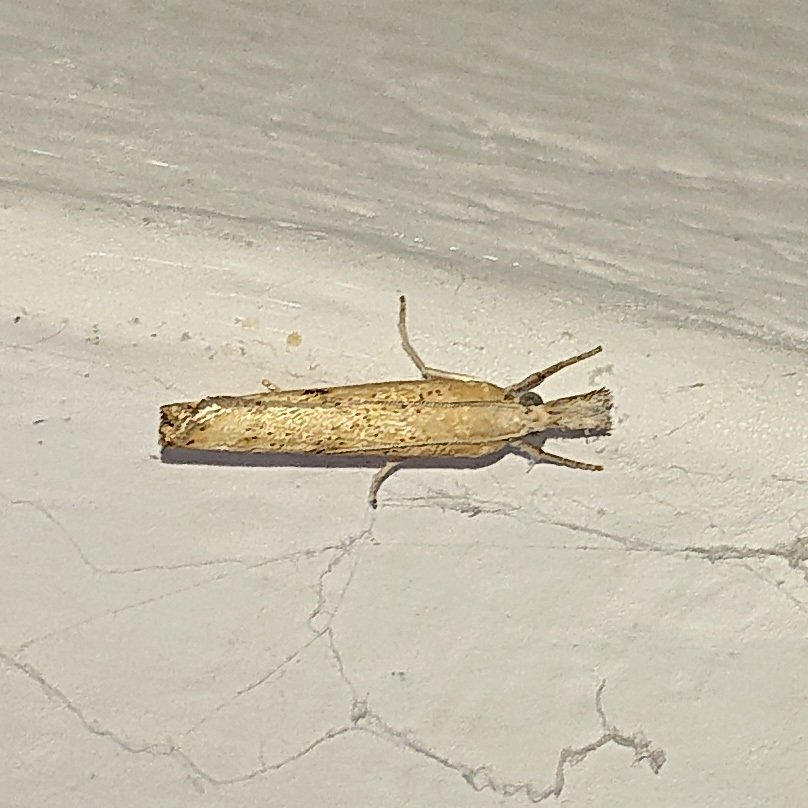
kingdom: Animalia
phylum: Arthropoda
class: Insecta
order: Lepidoptera
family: Crambidae
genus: Agriphila
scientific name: Agriphila inquinatella
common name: Barred grass-veneer
